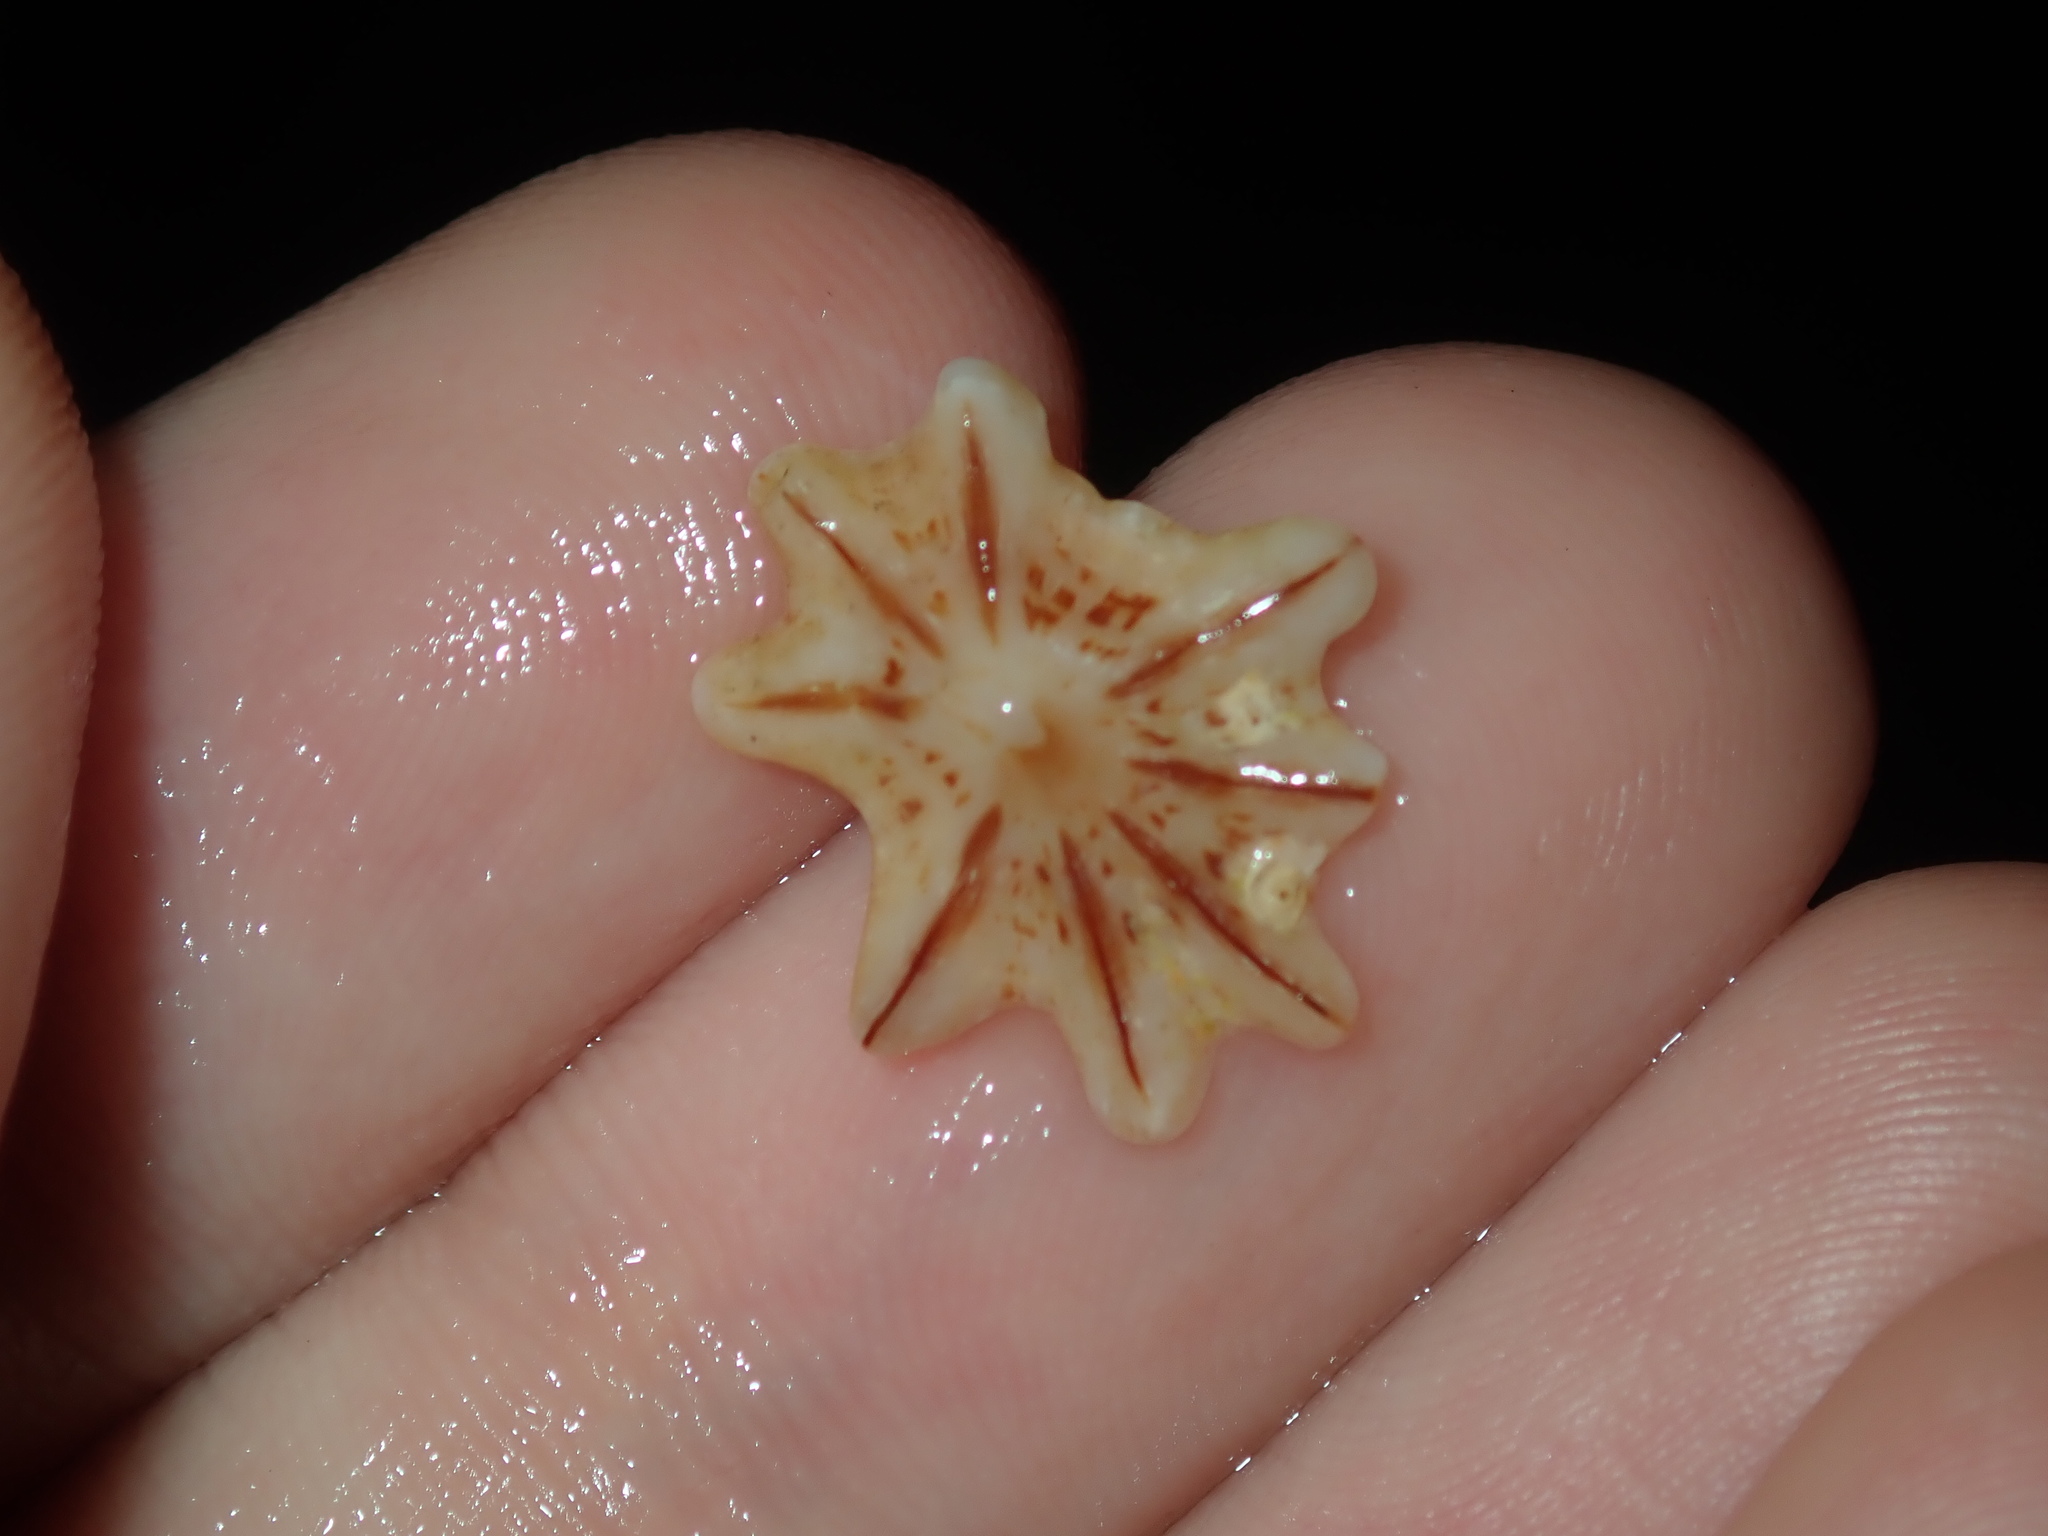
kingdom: Animalia
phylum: Mollusca
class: Gastropoda
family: Patellidae
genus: Scutellastra
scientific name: Scutellastra chapmani
